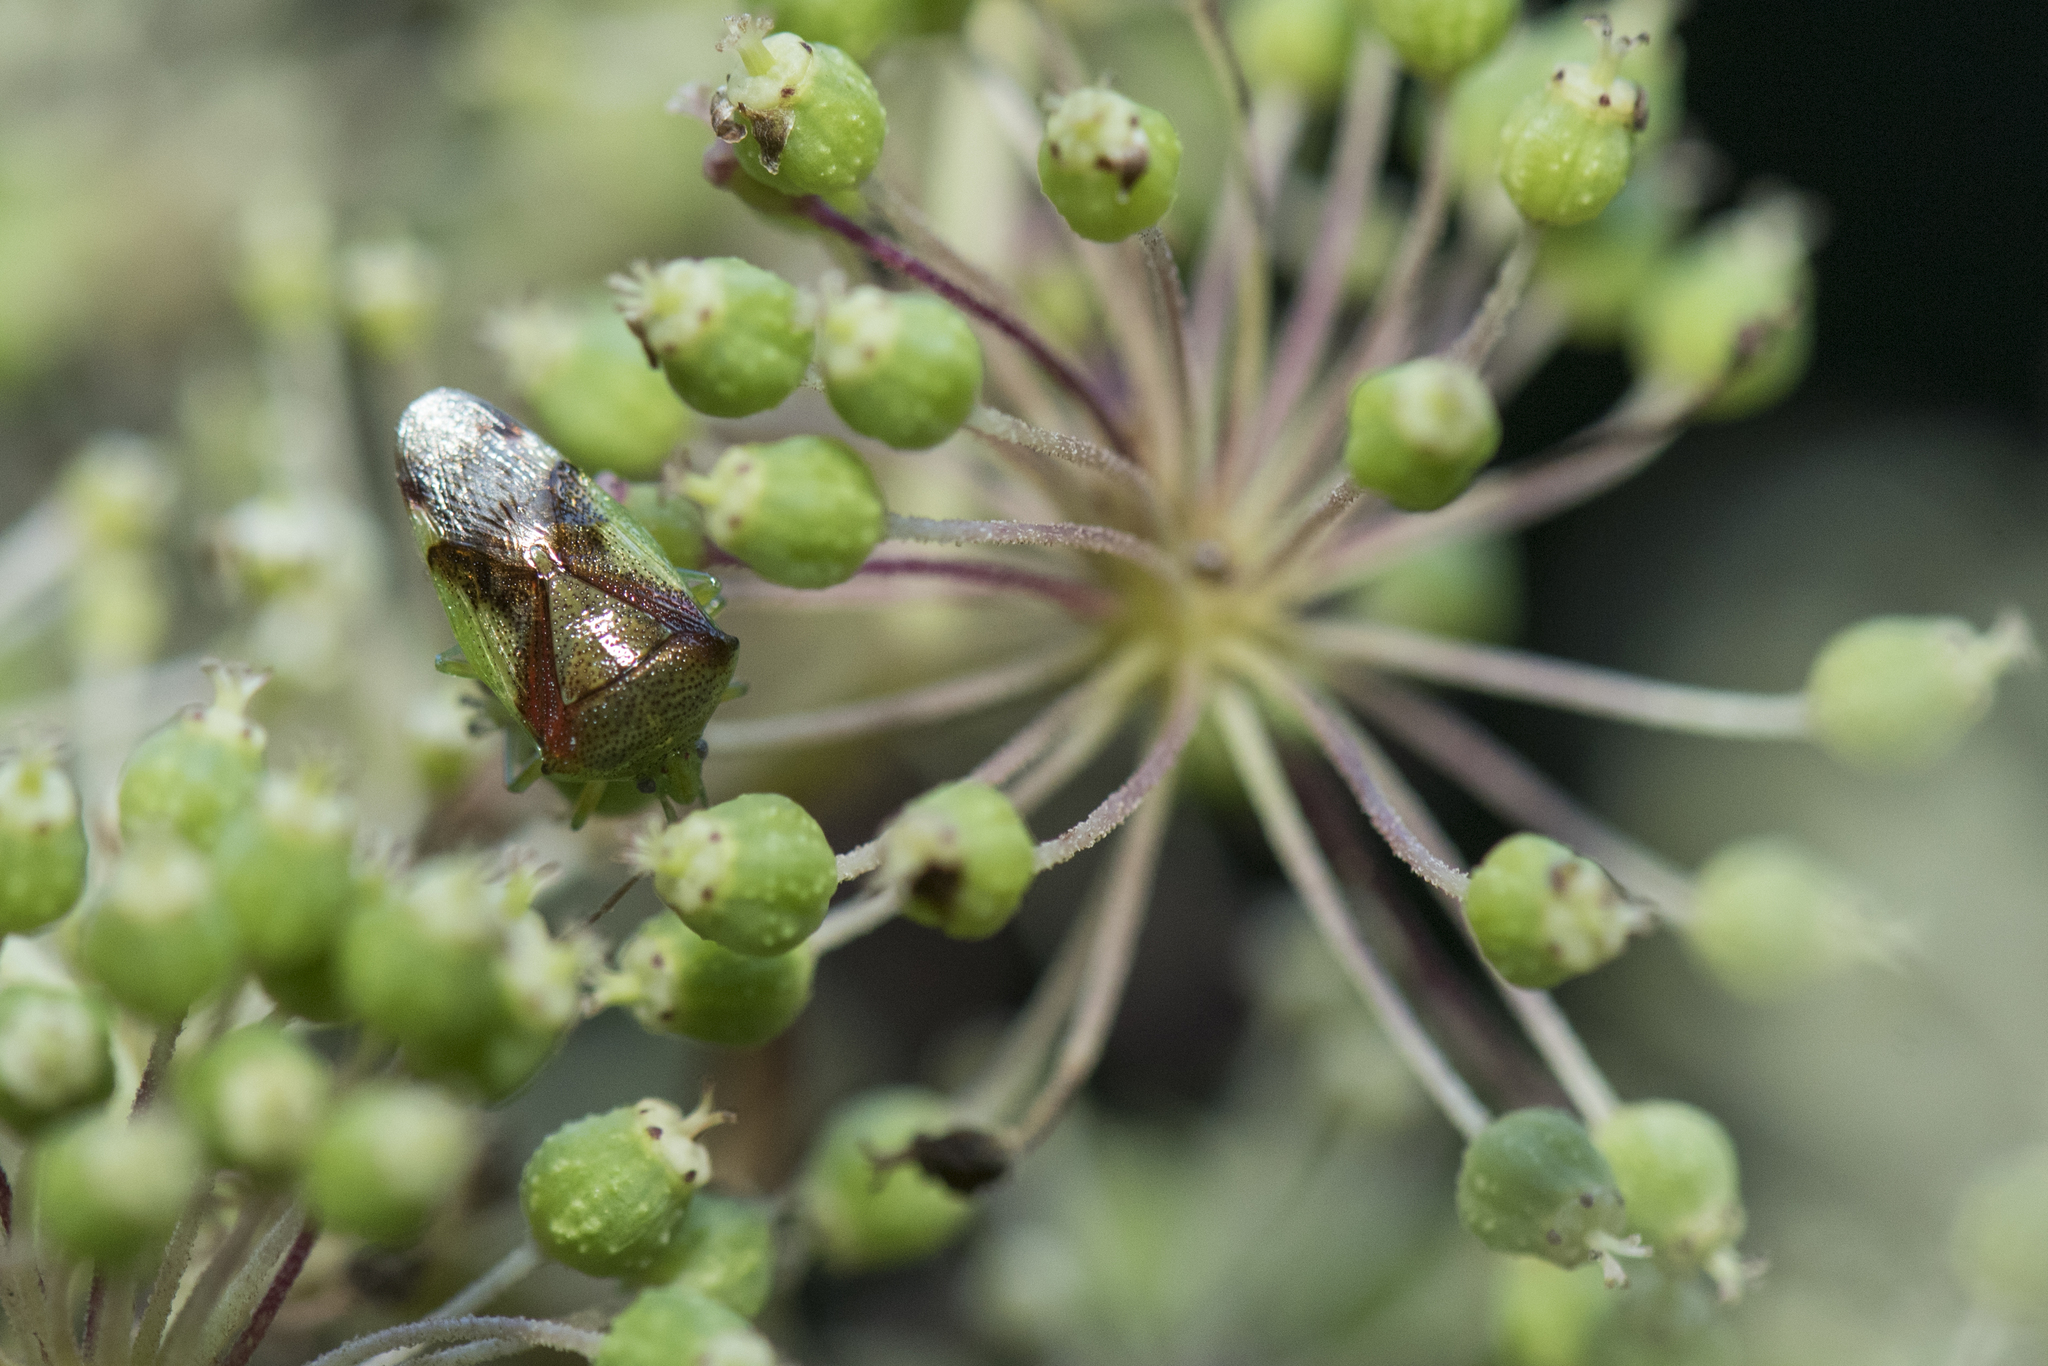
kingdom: Animalia
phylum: Arthropoda
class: Insecta
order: Hemiptera
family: Acanthosomatidae
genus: Elasmostethus
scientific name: Elasmostethus nubilus
